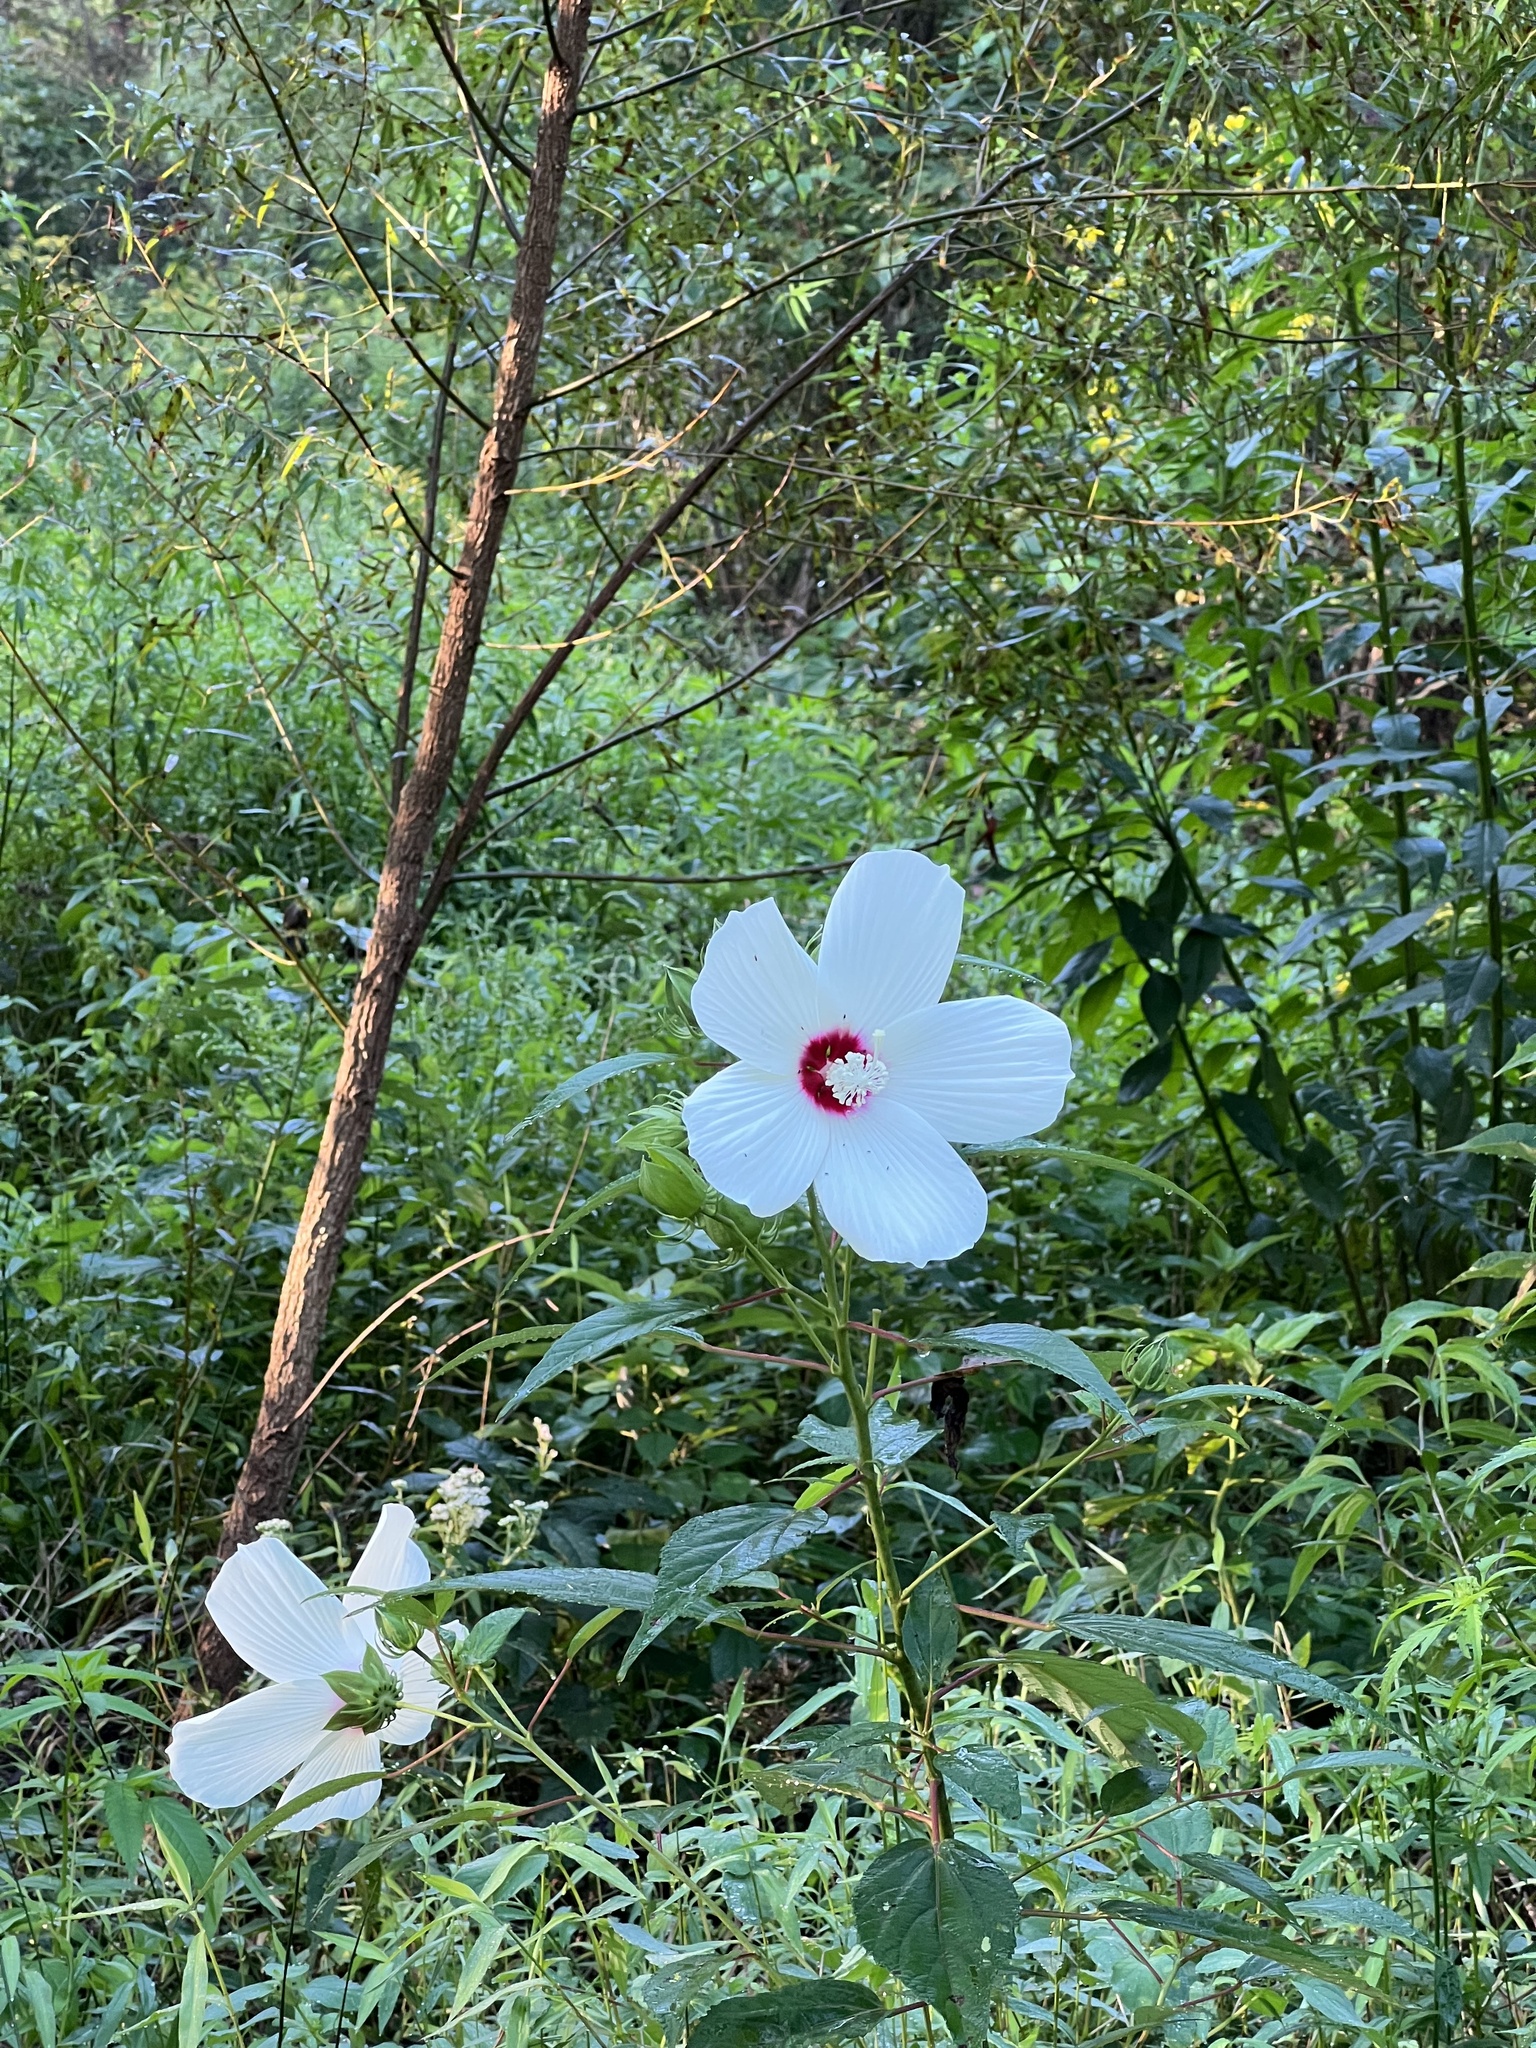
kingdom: Plantae
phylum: Tracheophyta
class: Magnoliopsida
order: Malvales
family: Malvaceae
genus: Hibiscus
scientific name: Hibiscus moscheutos
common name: Common rose-mallow
